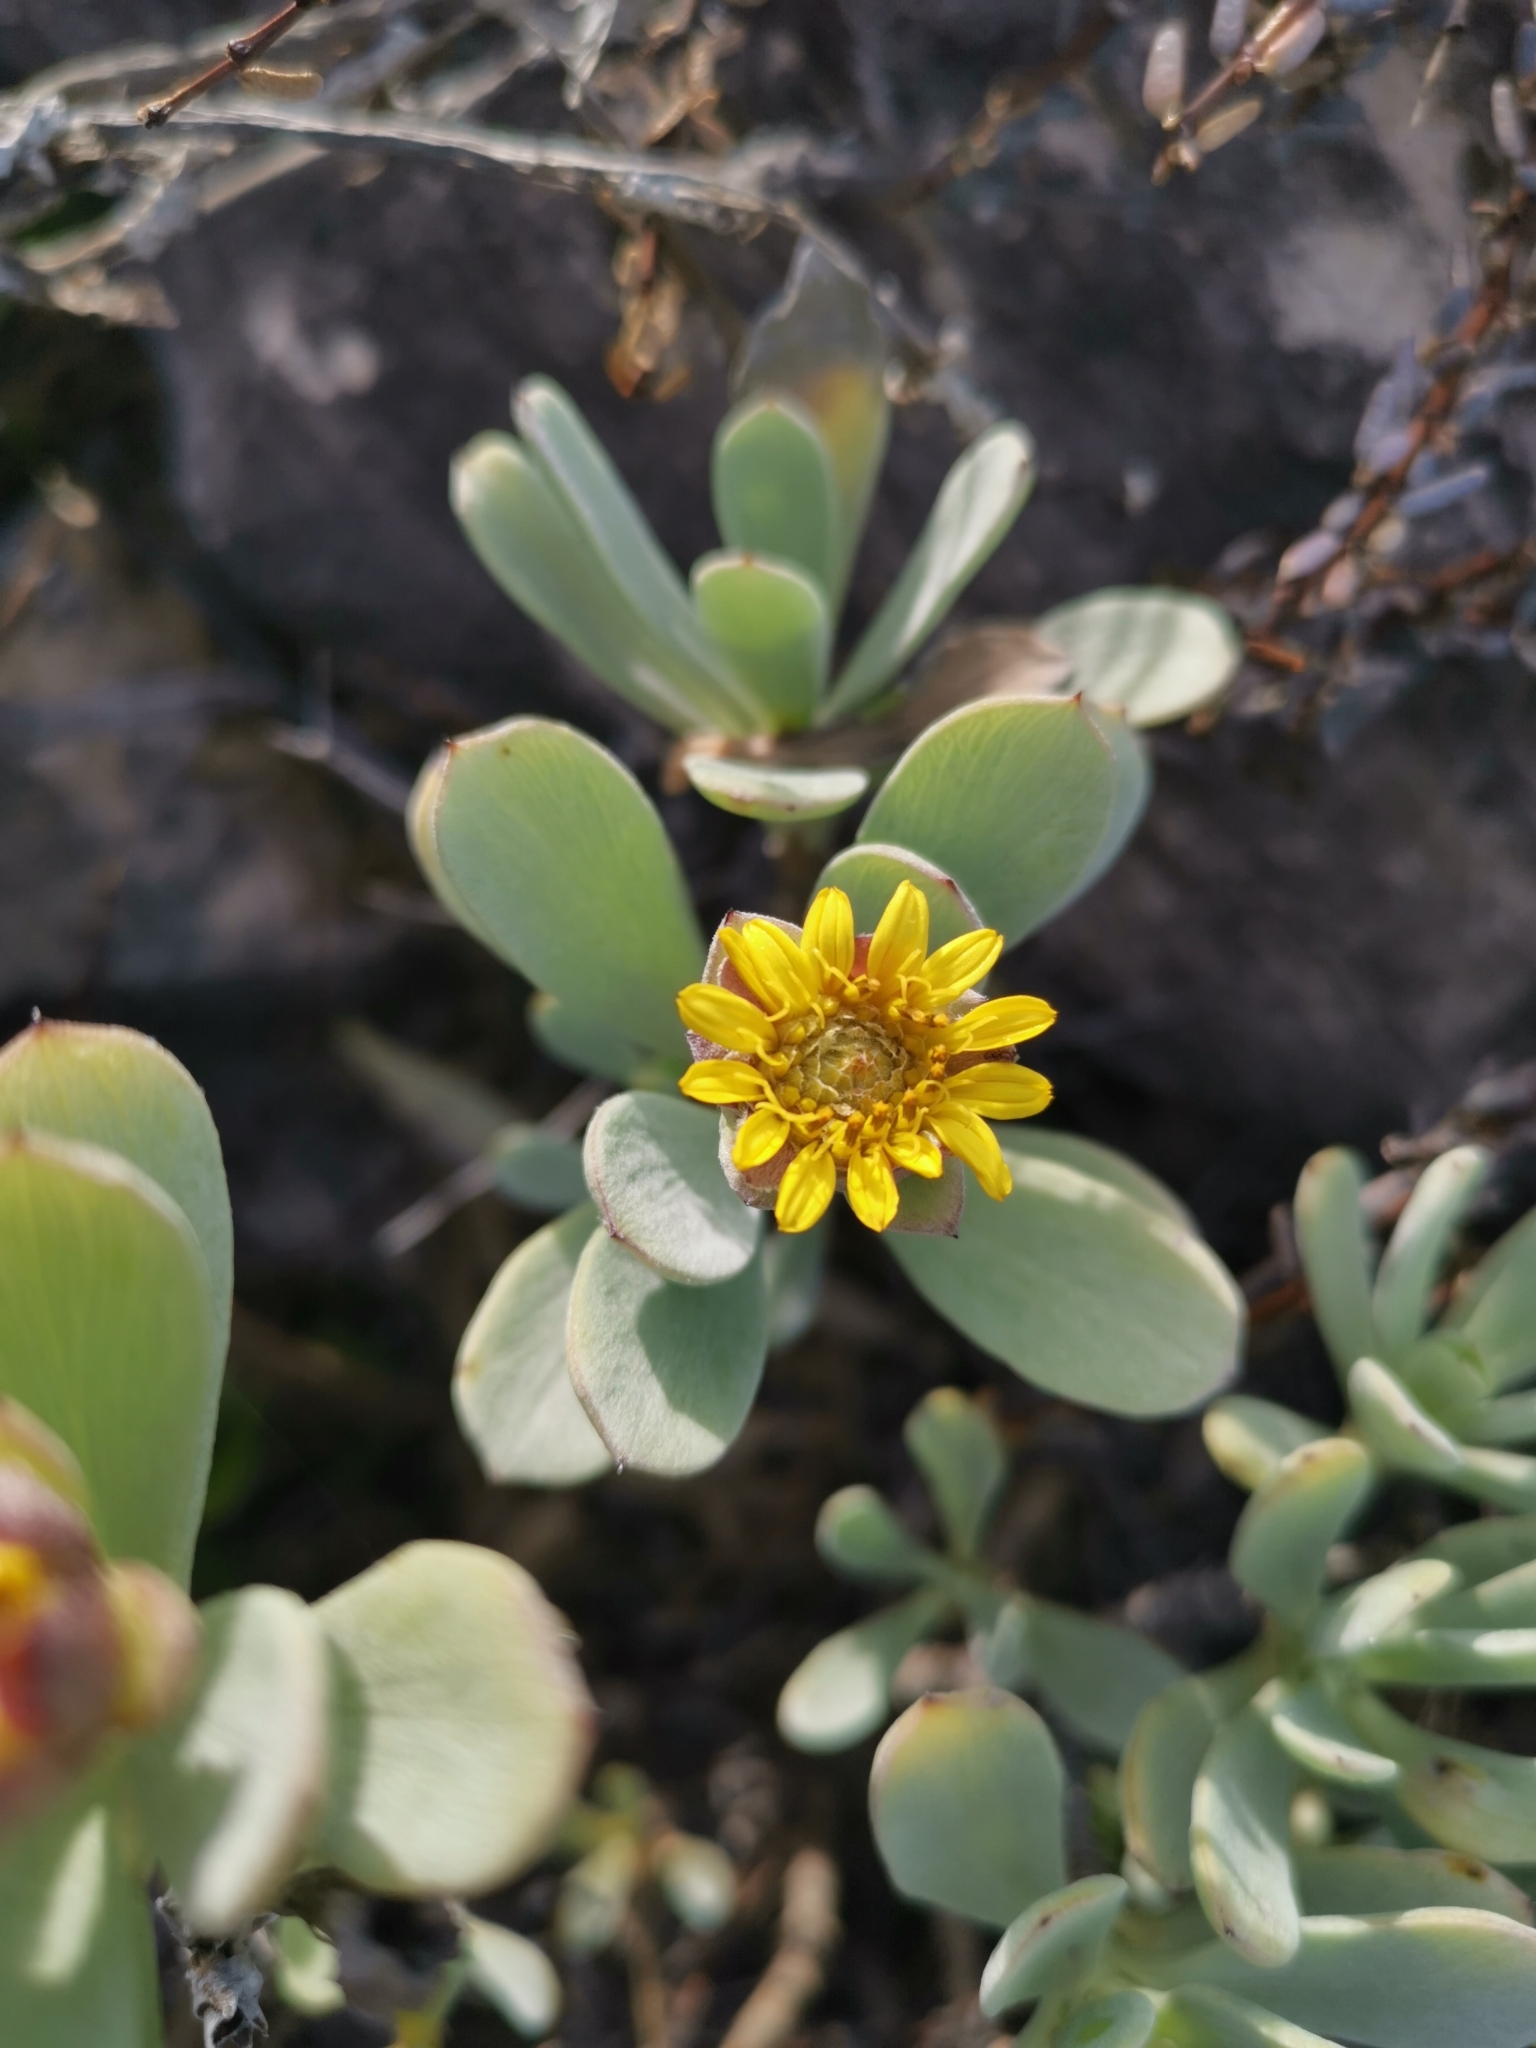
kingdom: Plantae
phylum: Tracheophyta
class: Magnoliopsida
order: Asterales
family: Asteraceae
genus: Borrichia
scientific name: Borrichia arborescens
